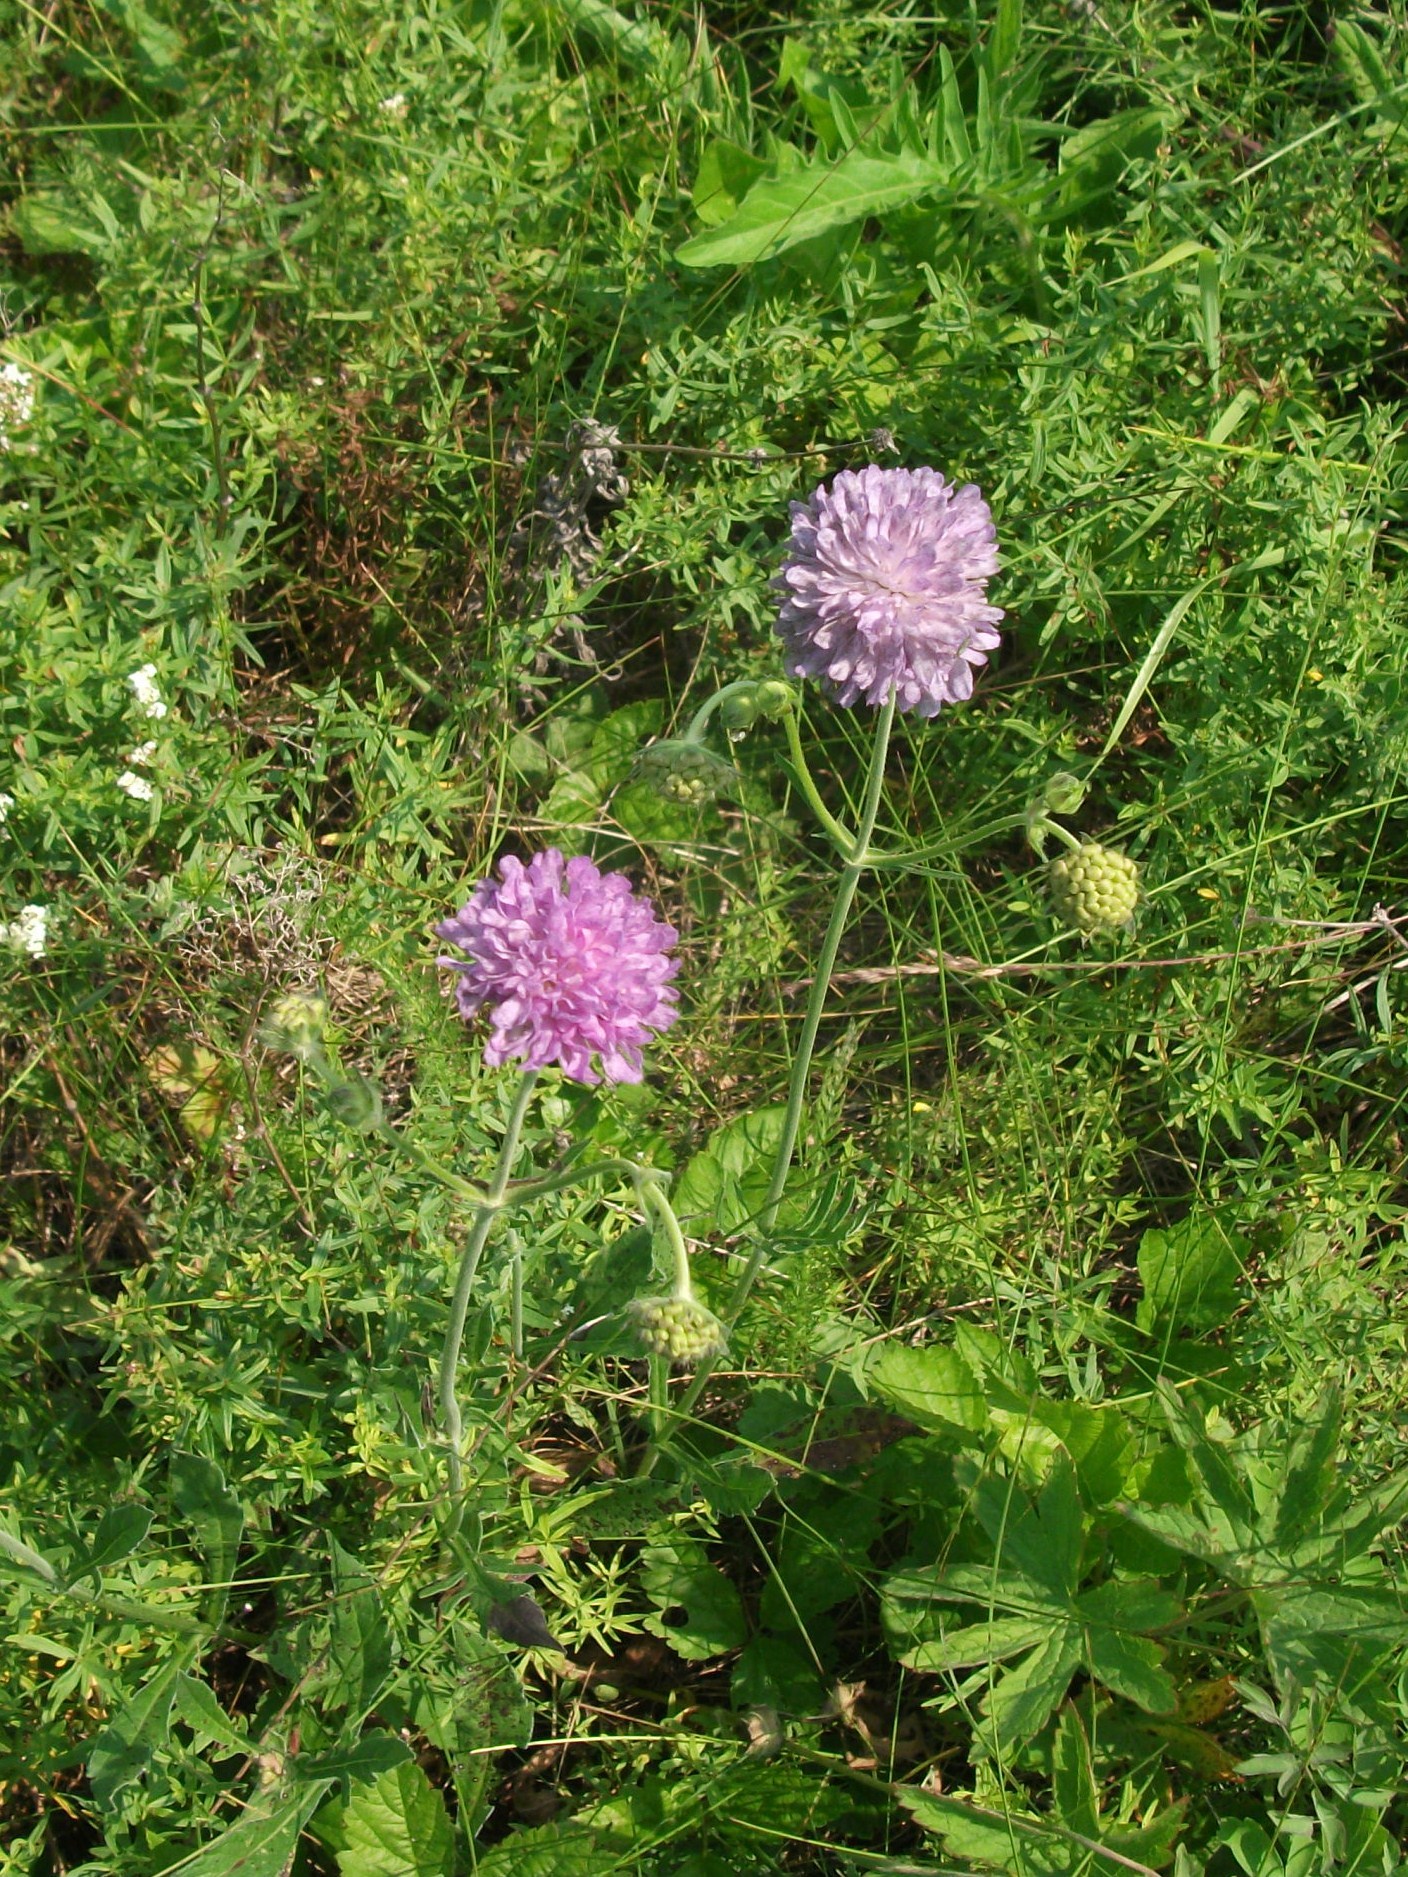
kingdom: Plantae
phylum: Tracheophyta
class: Magnoliopsida
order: Dipsacales
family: Caprifoliaceae
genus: Knautia
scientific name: Knautia arvensis
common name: Field scabiosa
